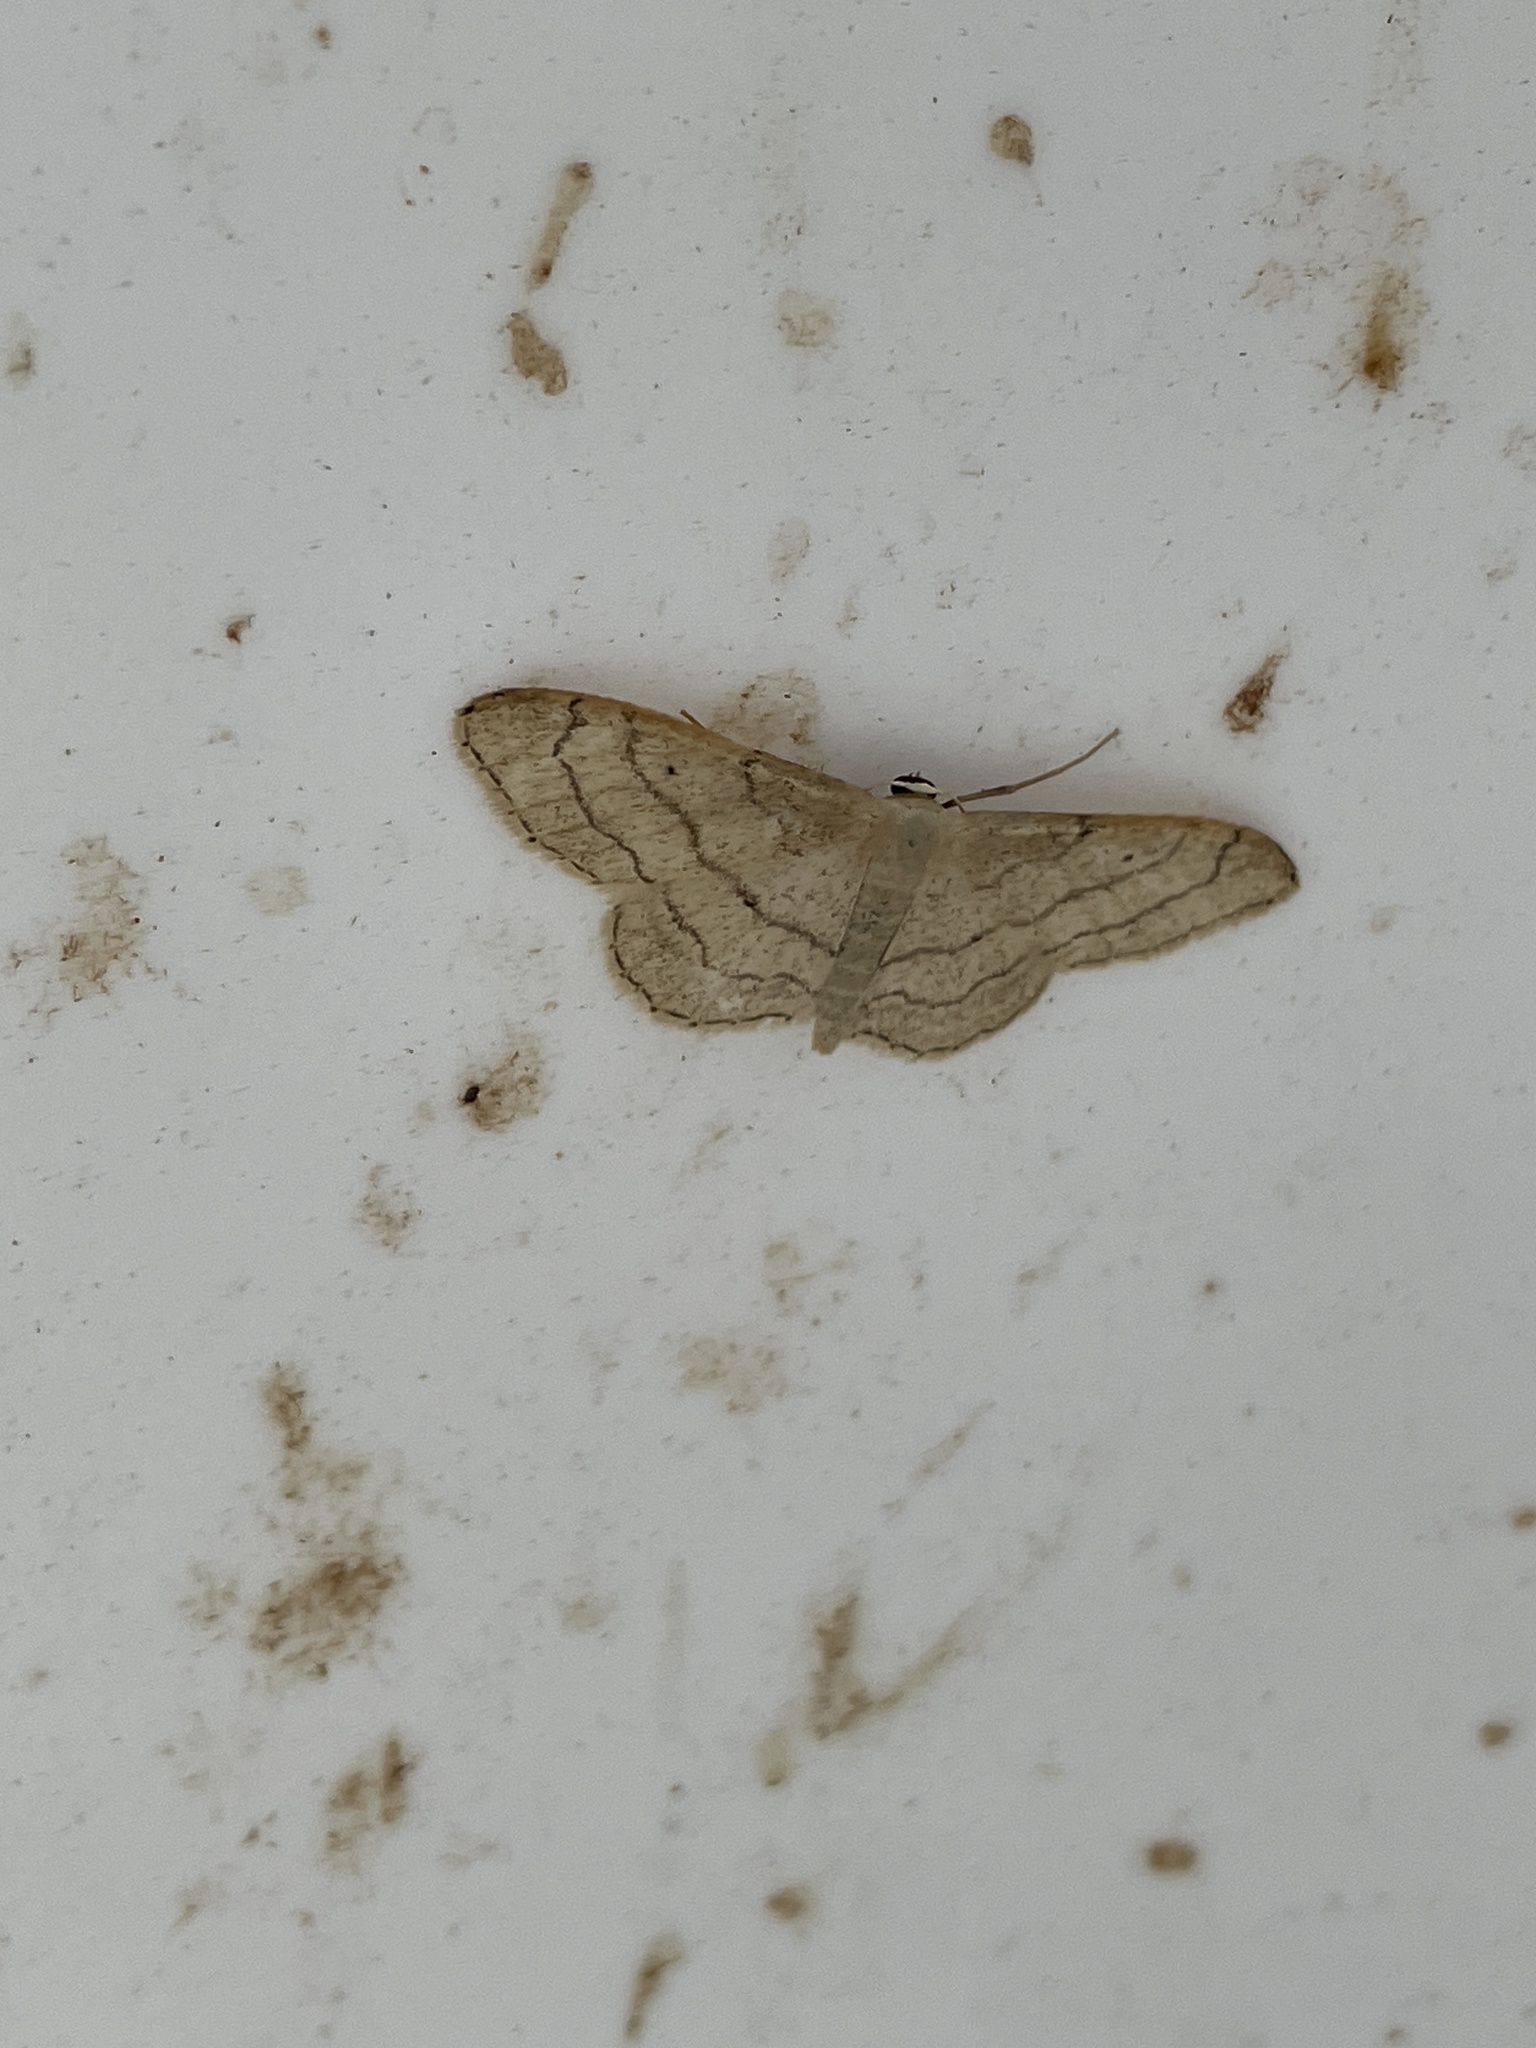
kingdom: Animalia
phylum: Arthropoda
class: Insecta
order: Lepidoptera
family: Geometridae
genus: Idaea
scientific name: Idaea aversata
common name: Riband wave
